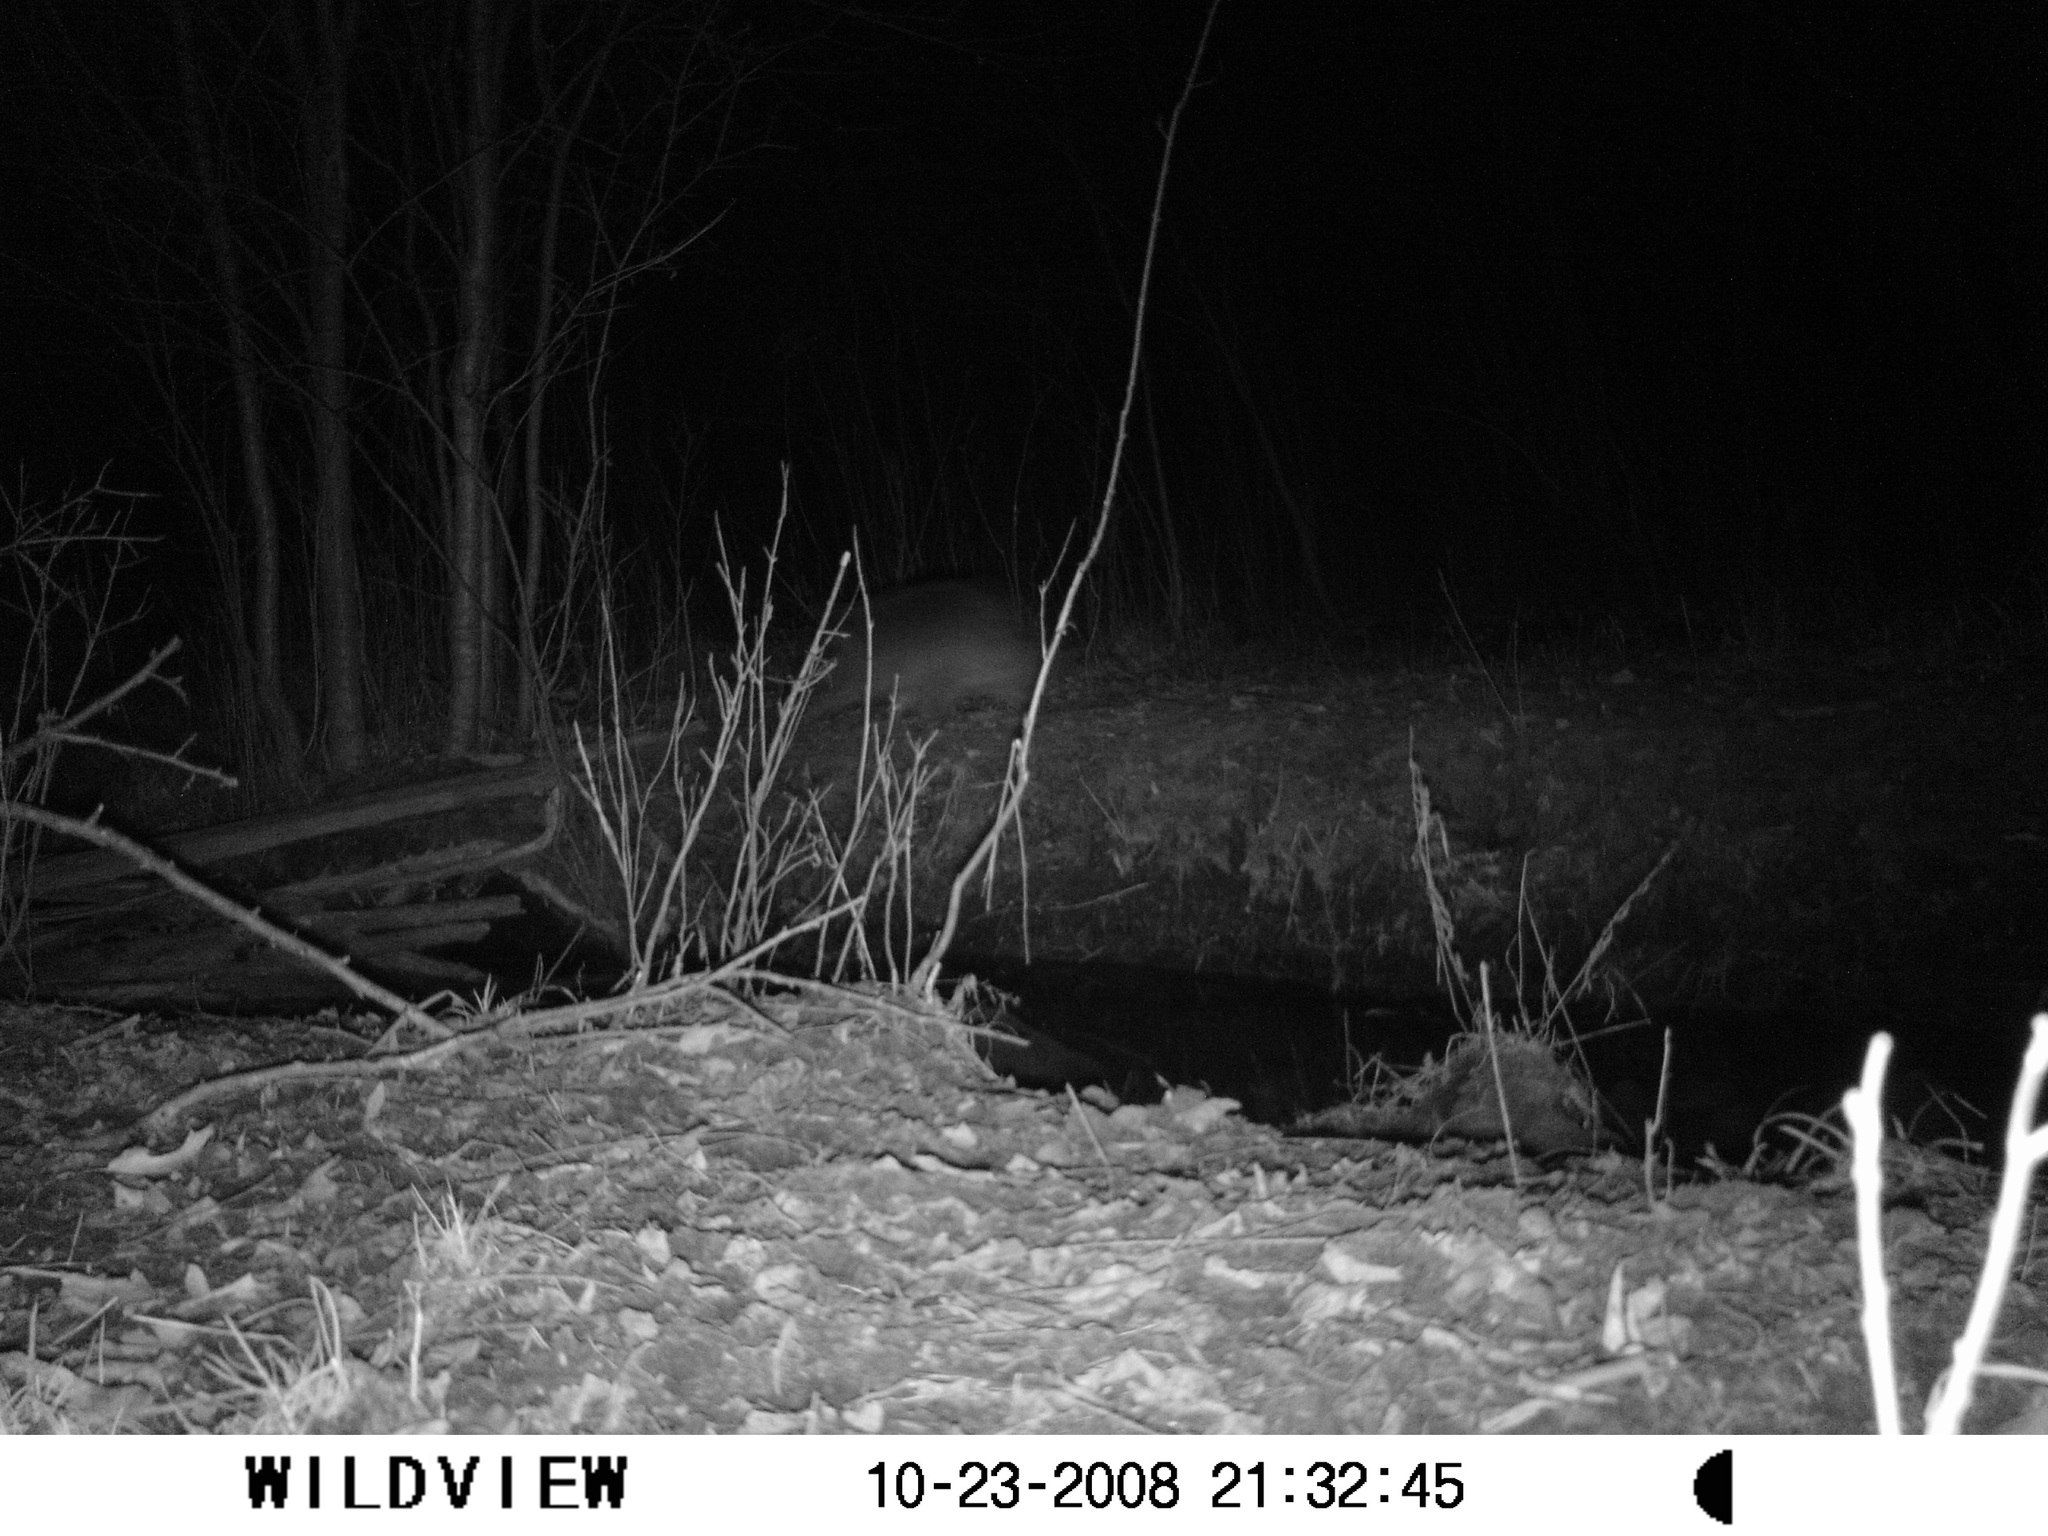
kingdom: Animalia
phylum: Chordata
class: Mammalia
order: Carnivora
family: Procyonidae
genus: Procyon
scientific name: Procyon lotor
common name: Raccoon
